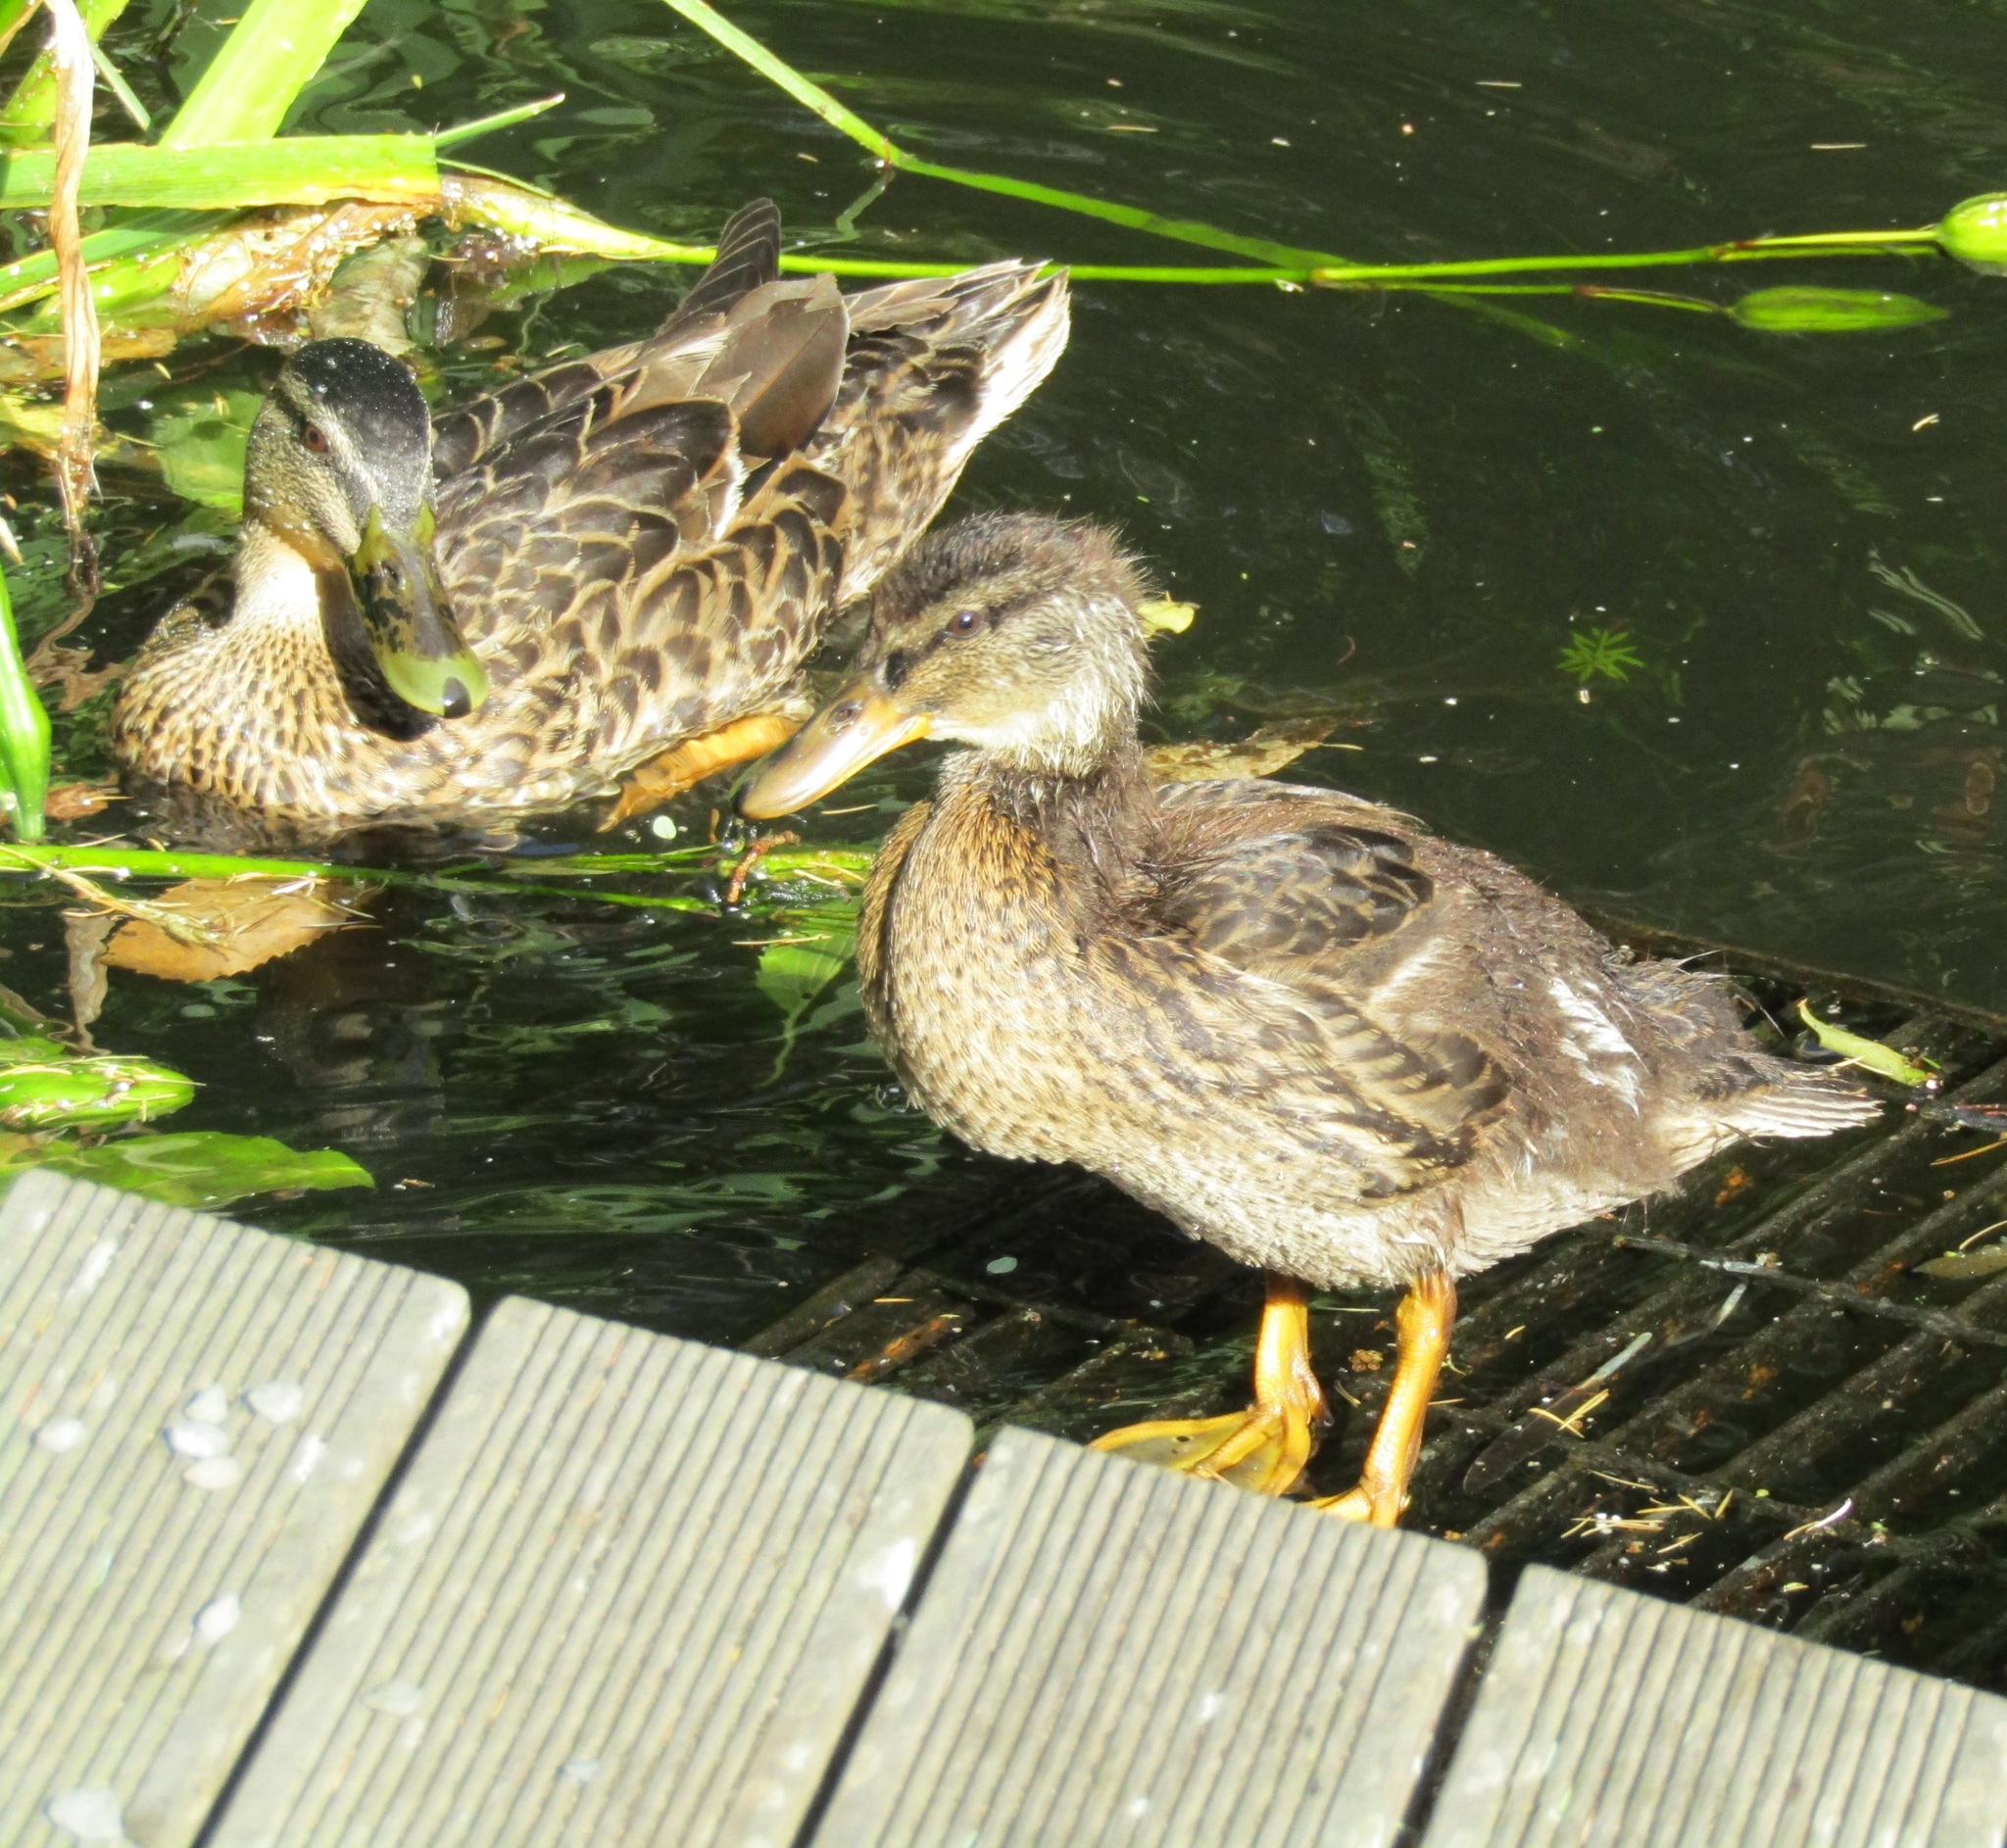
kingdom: Animalia
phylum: Chordata
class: Aves
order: Anseriformes
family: Anatidae
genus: Anas
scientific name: Anas
